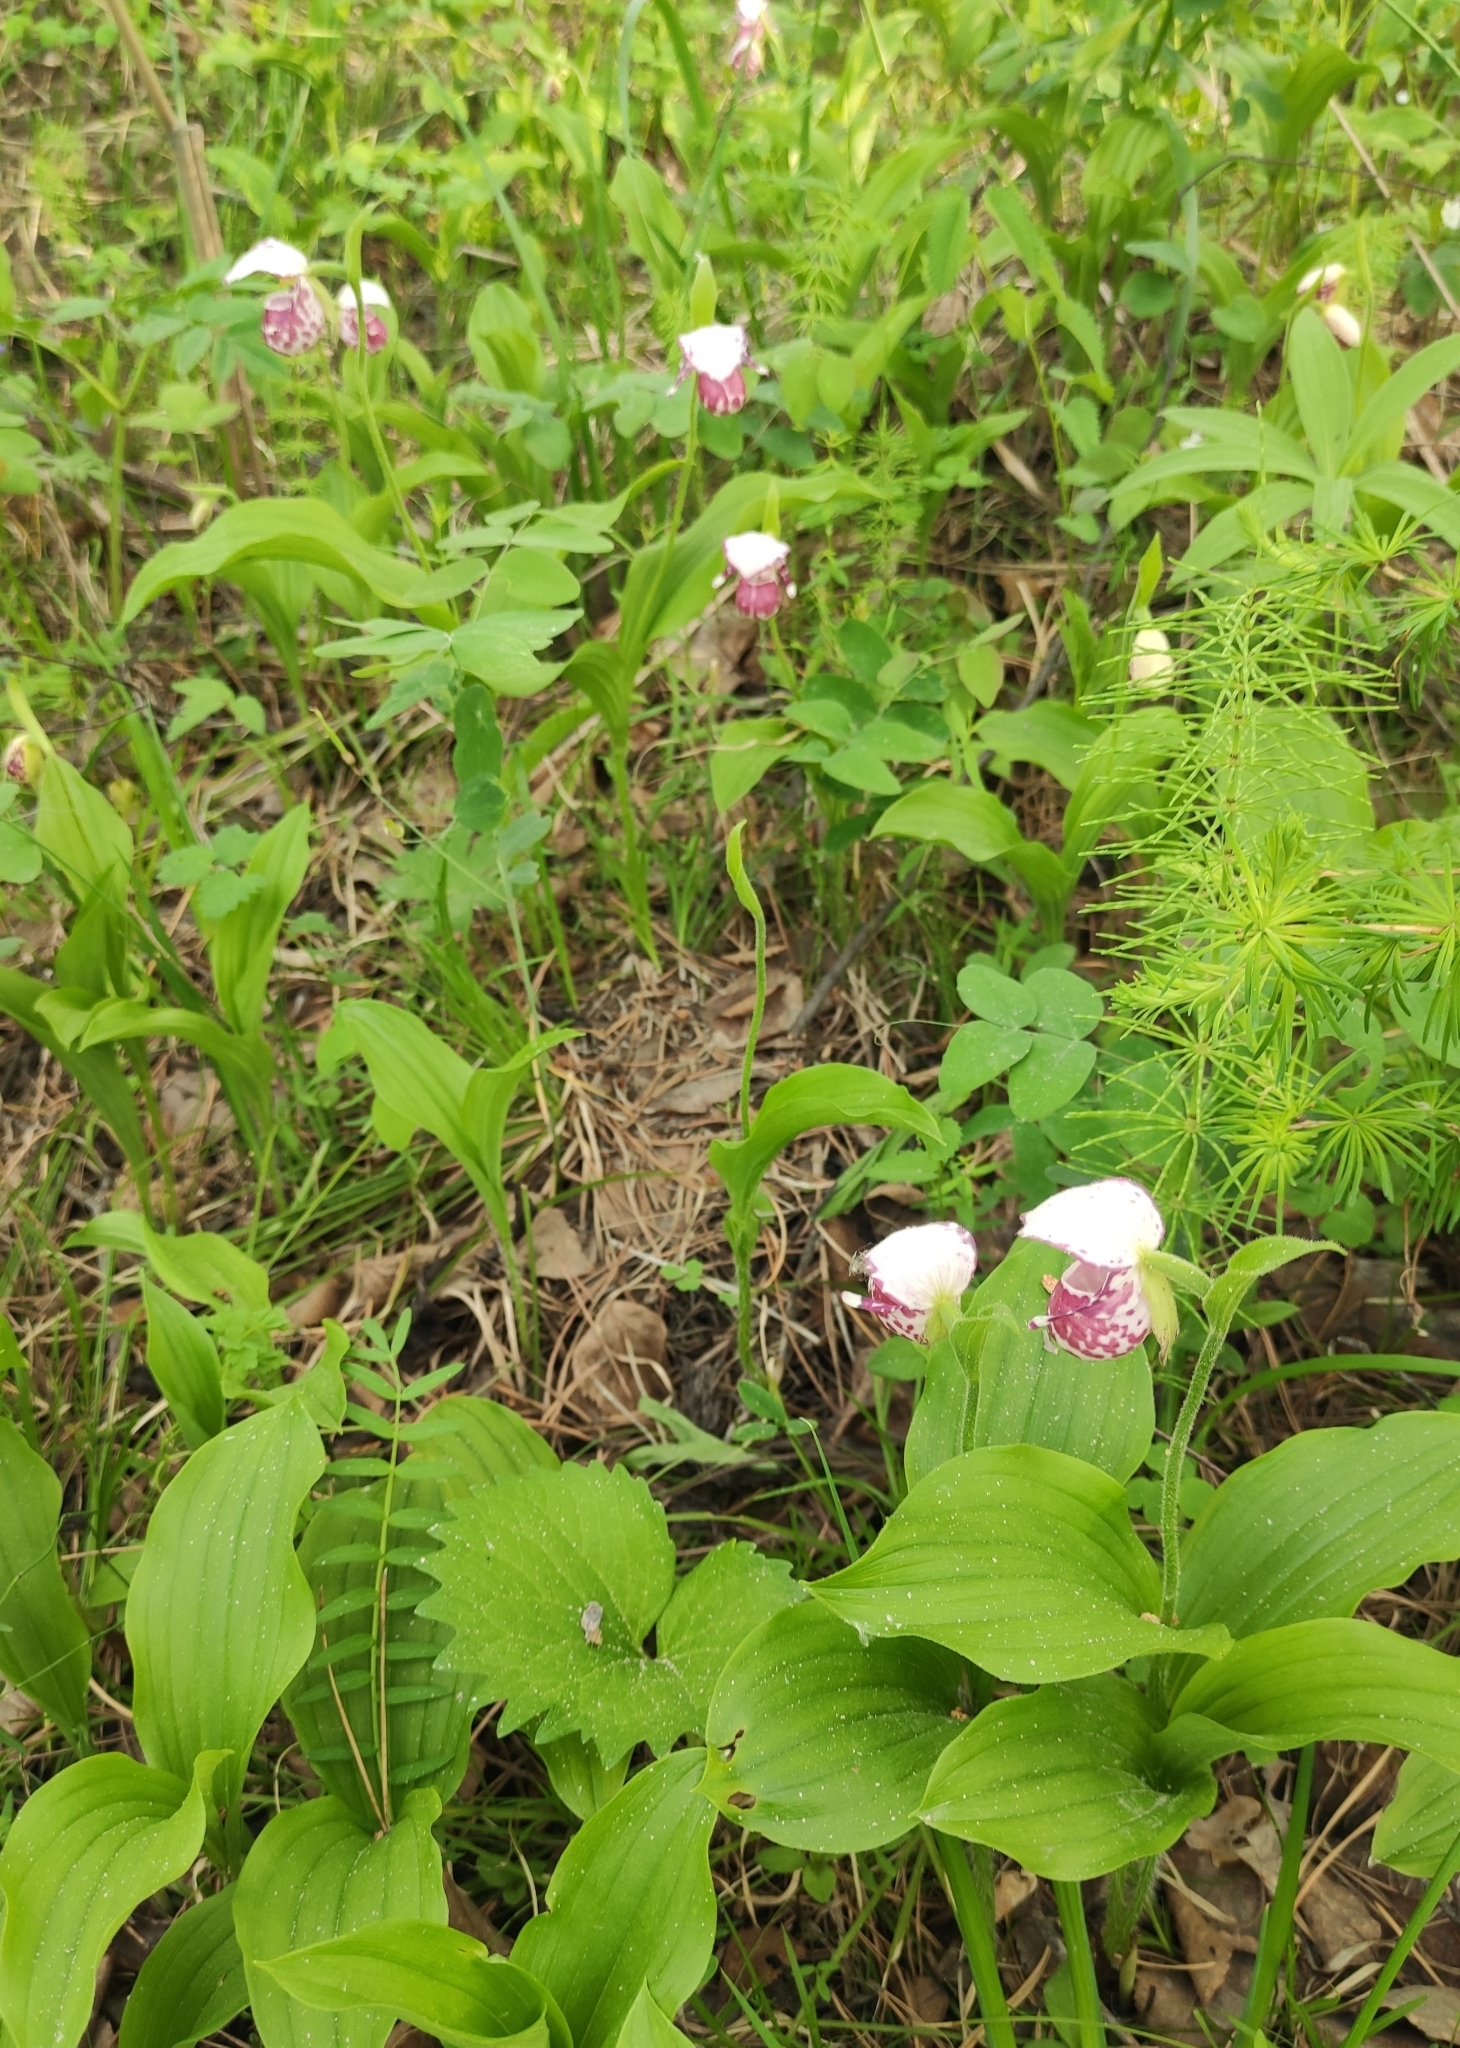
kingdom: Plantae
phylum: Tracheophyta
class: Liliopsida
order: Asparagales
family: Orchidaceae
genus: Cypripedium
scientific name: Cypripedium guttatum
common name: Pink lady slipper
